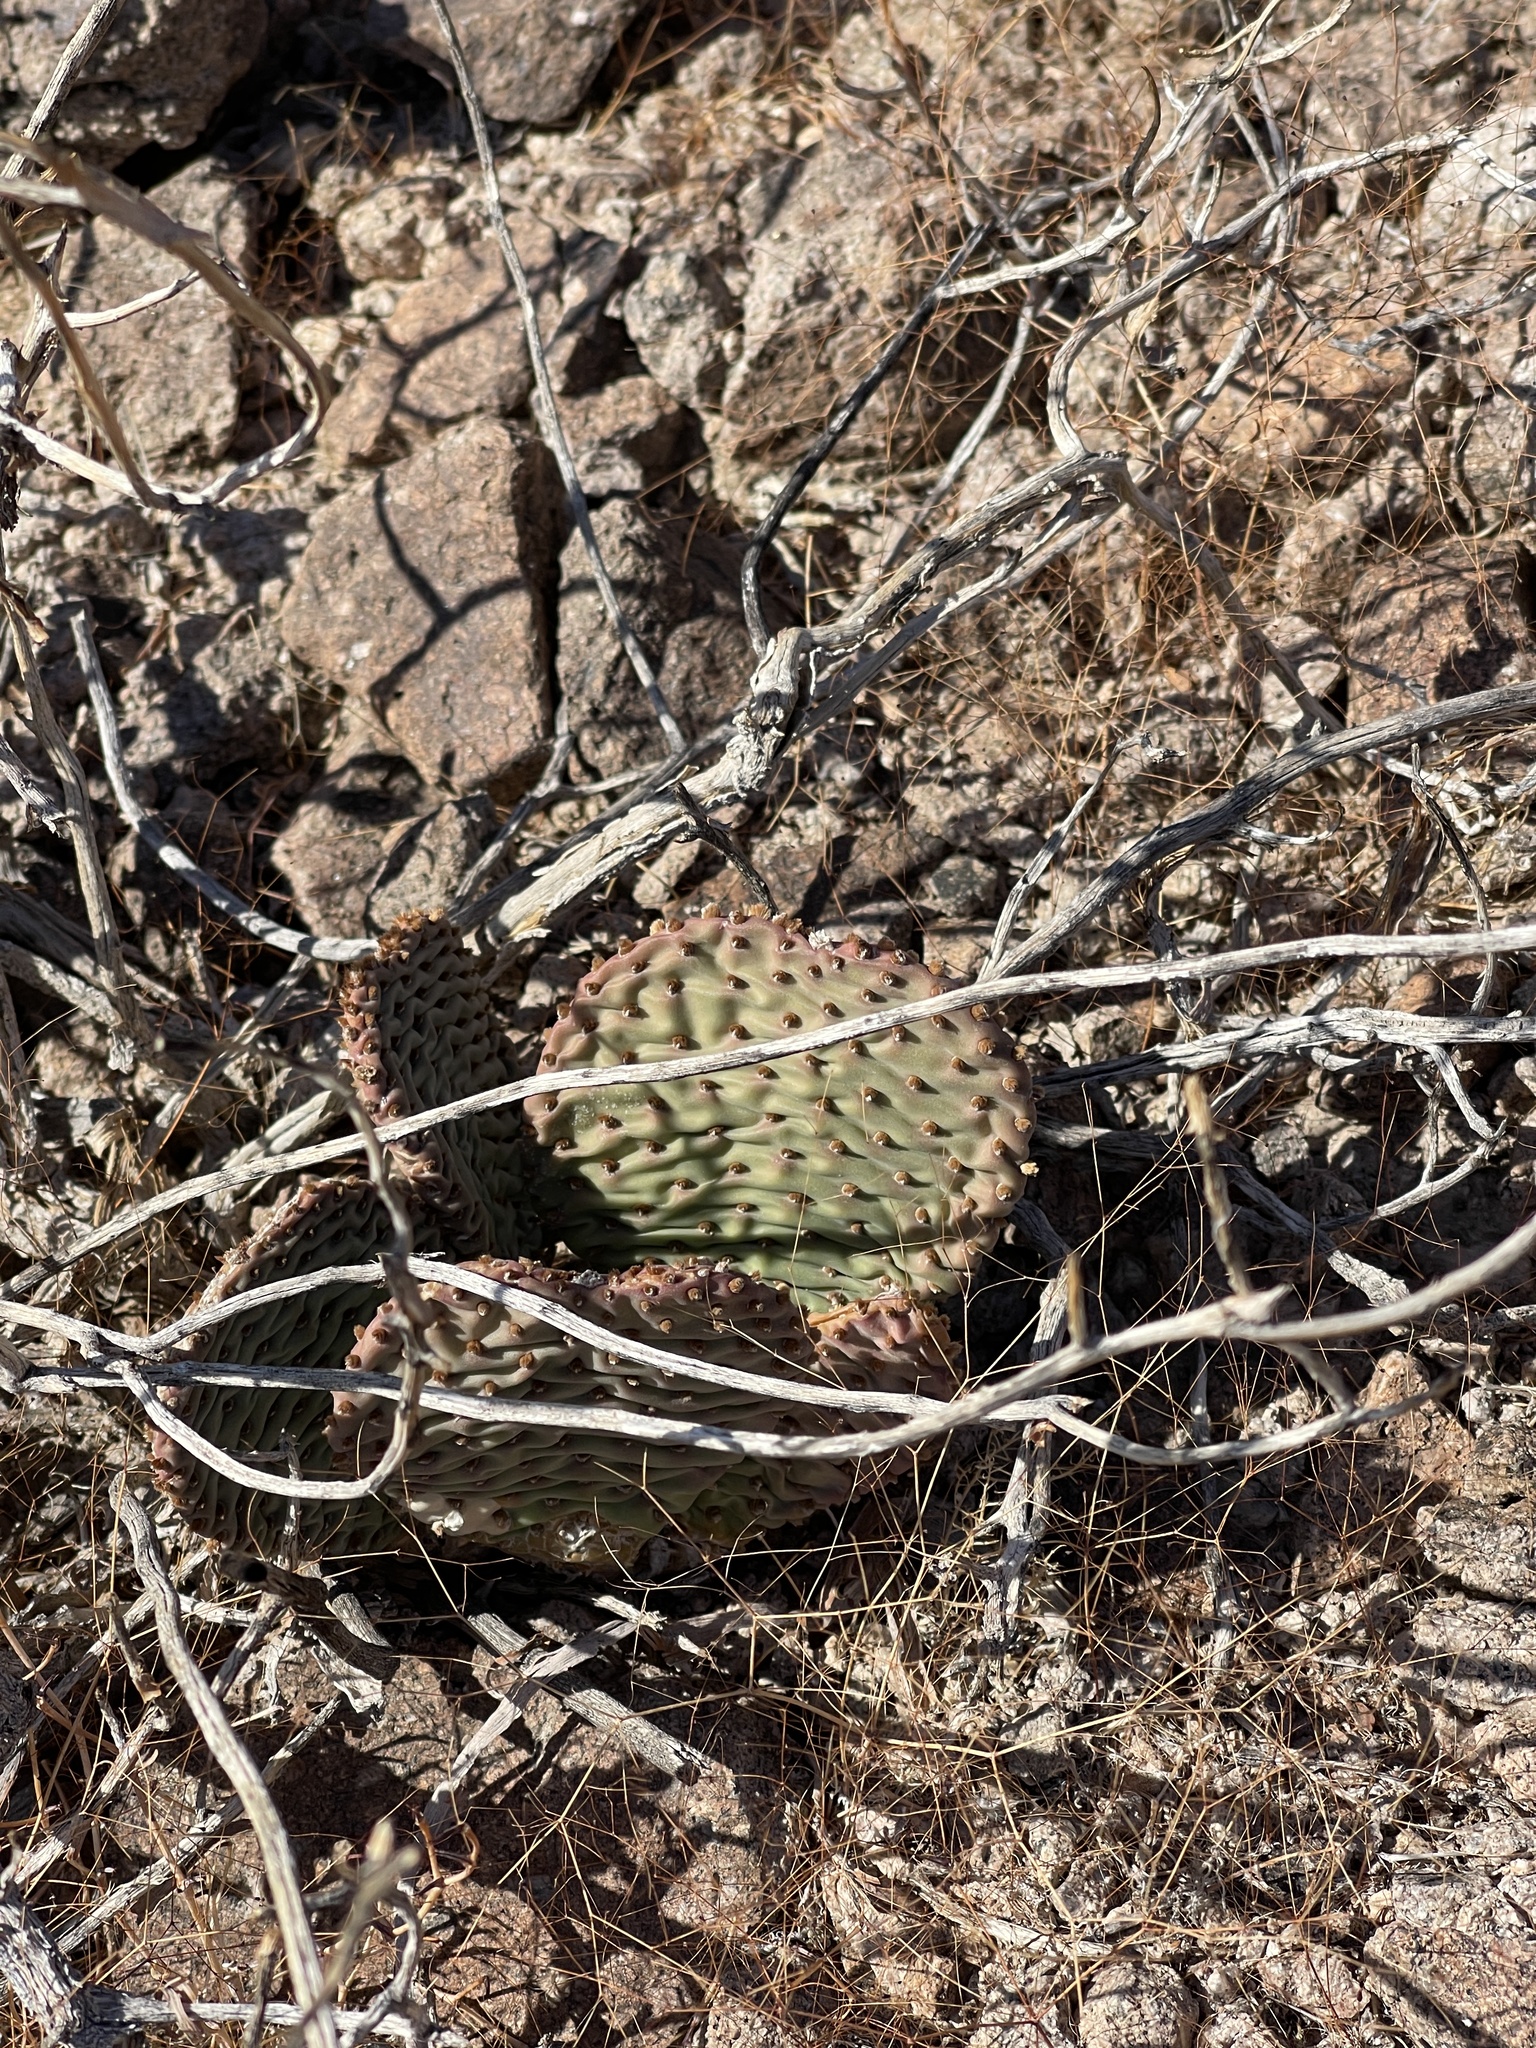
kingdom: Plantae
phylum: Tracheophyta
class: Magnoliopsida
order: Caryophyllales
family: Cactaceae
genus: Opuntia
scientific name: Opuntia basilaris
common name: Beavertail prickly-pear
